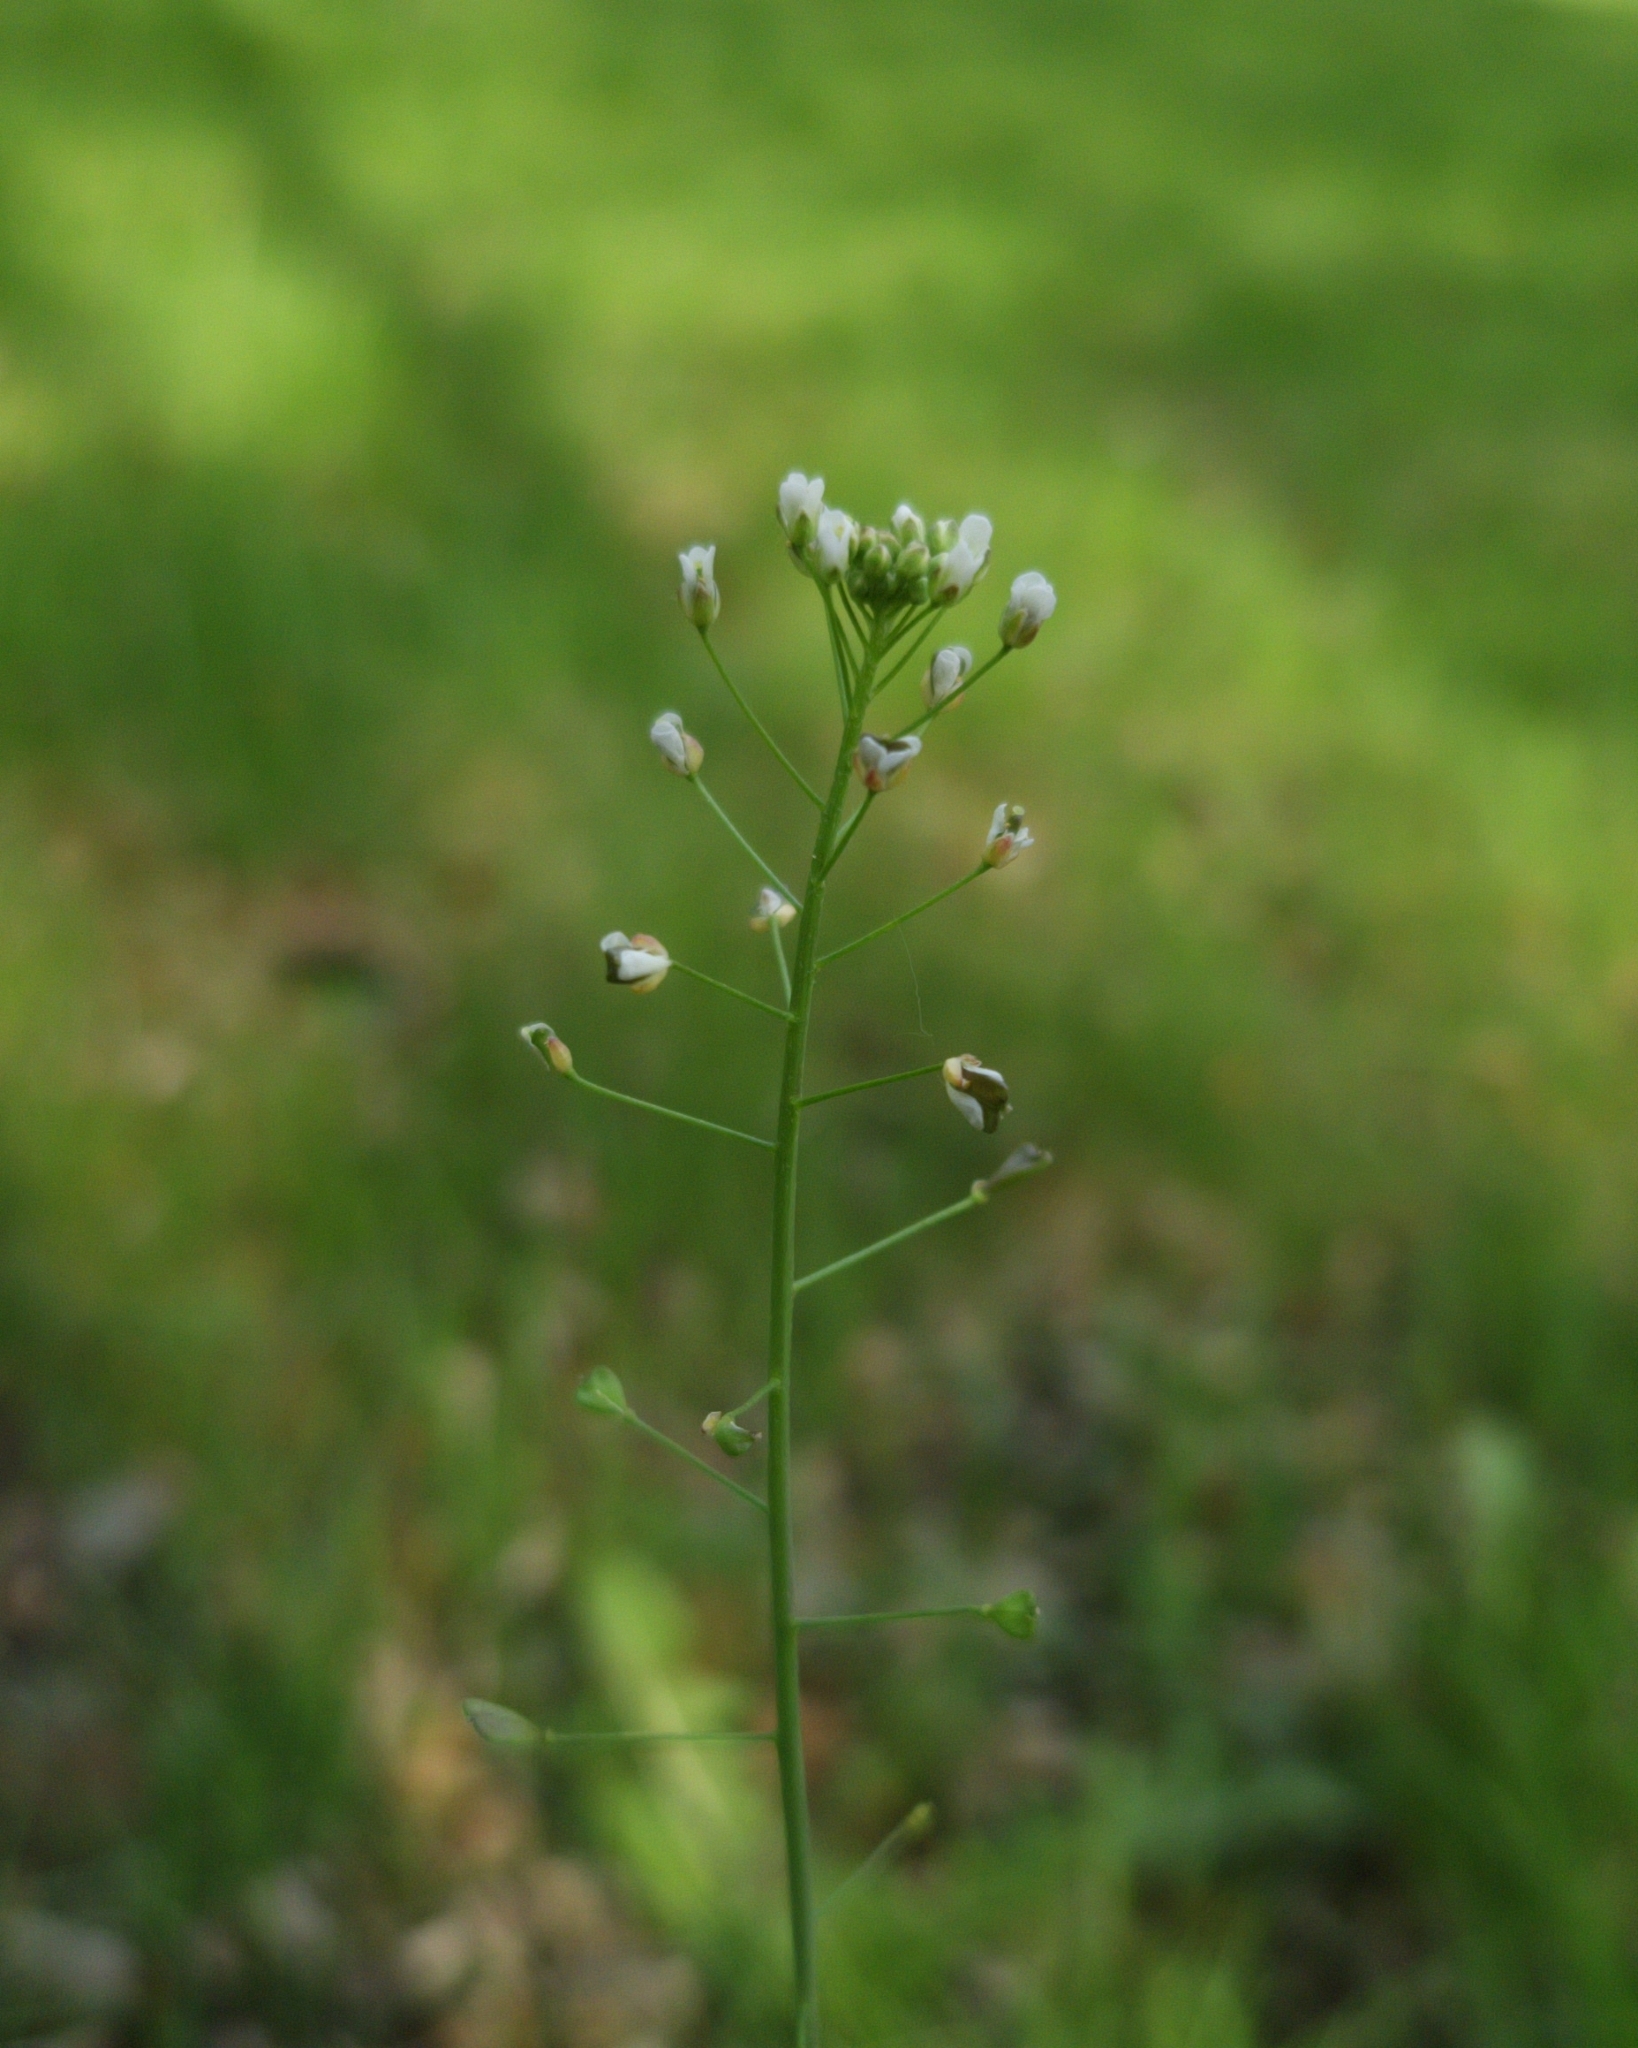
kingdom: Plantae
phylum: Tracheophyta
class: Magnoliopsida
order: Brassicales
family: Brassicaceae
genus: Capsella
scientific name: Capsella bursa-pastoris
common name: Shepherd's purse
